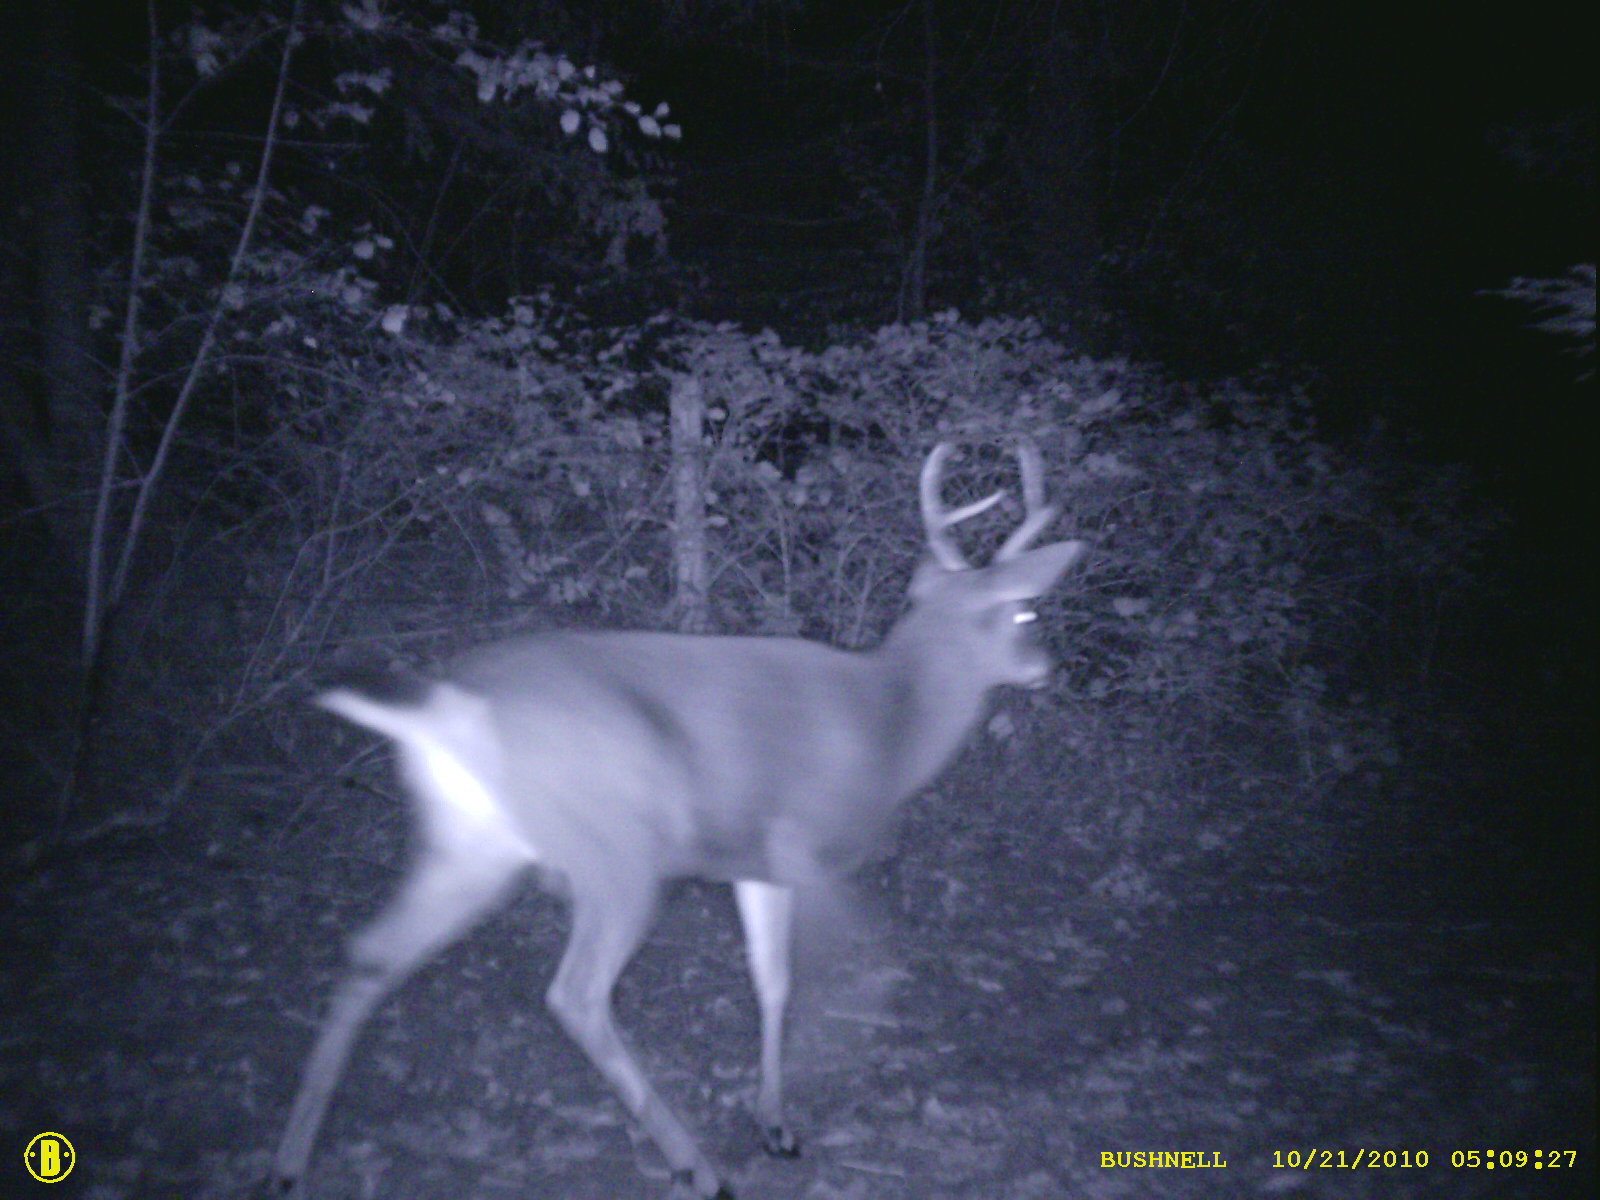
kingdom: Animalia
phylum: Chordata
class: Mammalia
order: Artiodactyla
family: Cervidae
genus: Odocoileus
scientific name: Odocoileus hemionus
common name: Mule deer
